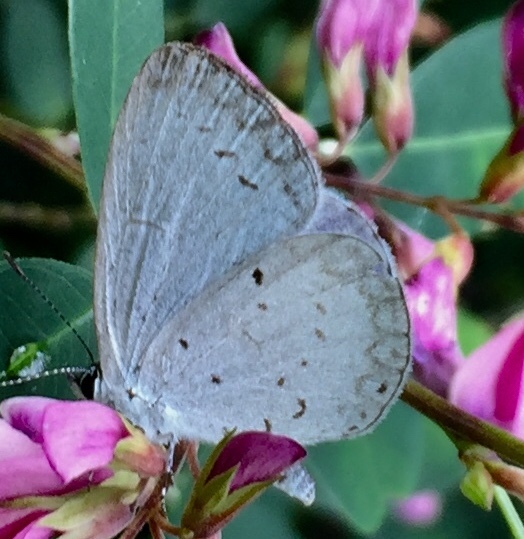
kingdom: Animalia
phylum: Arthropoda
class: Insecta
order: Lepidoptera
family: Lycaenidae
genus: Cyaniris
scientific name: Cyaniris neglecta
